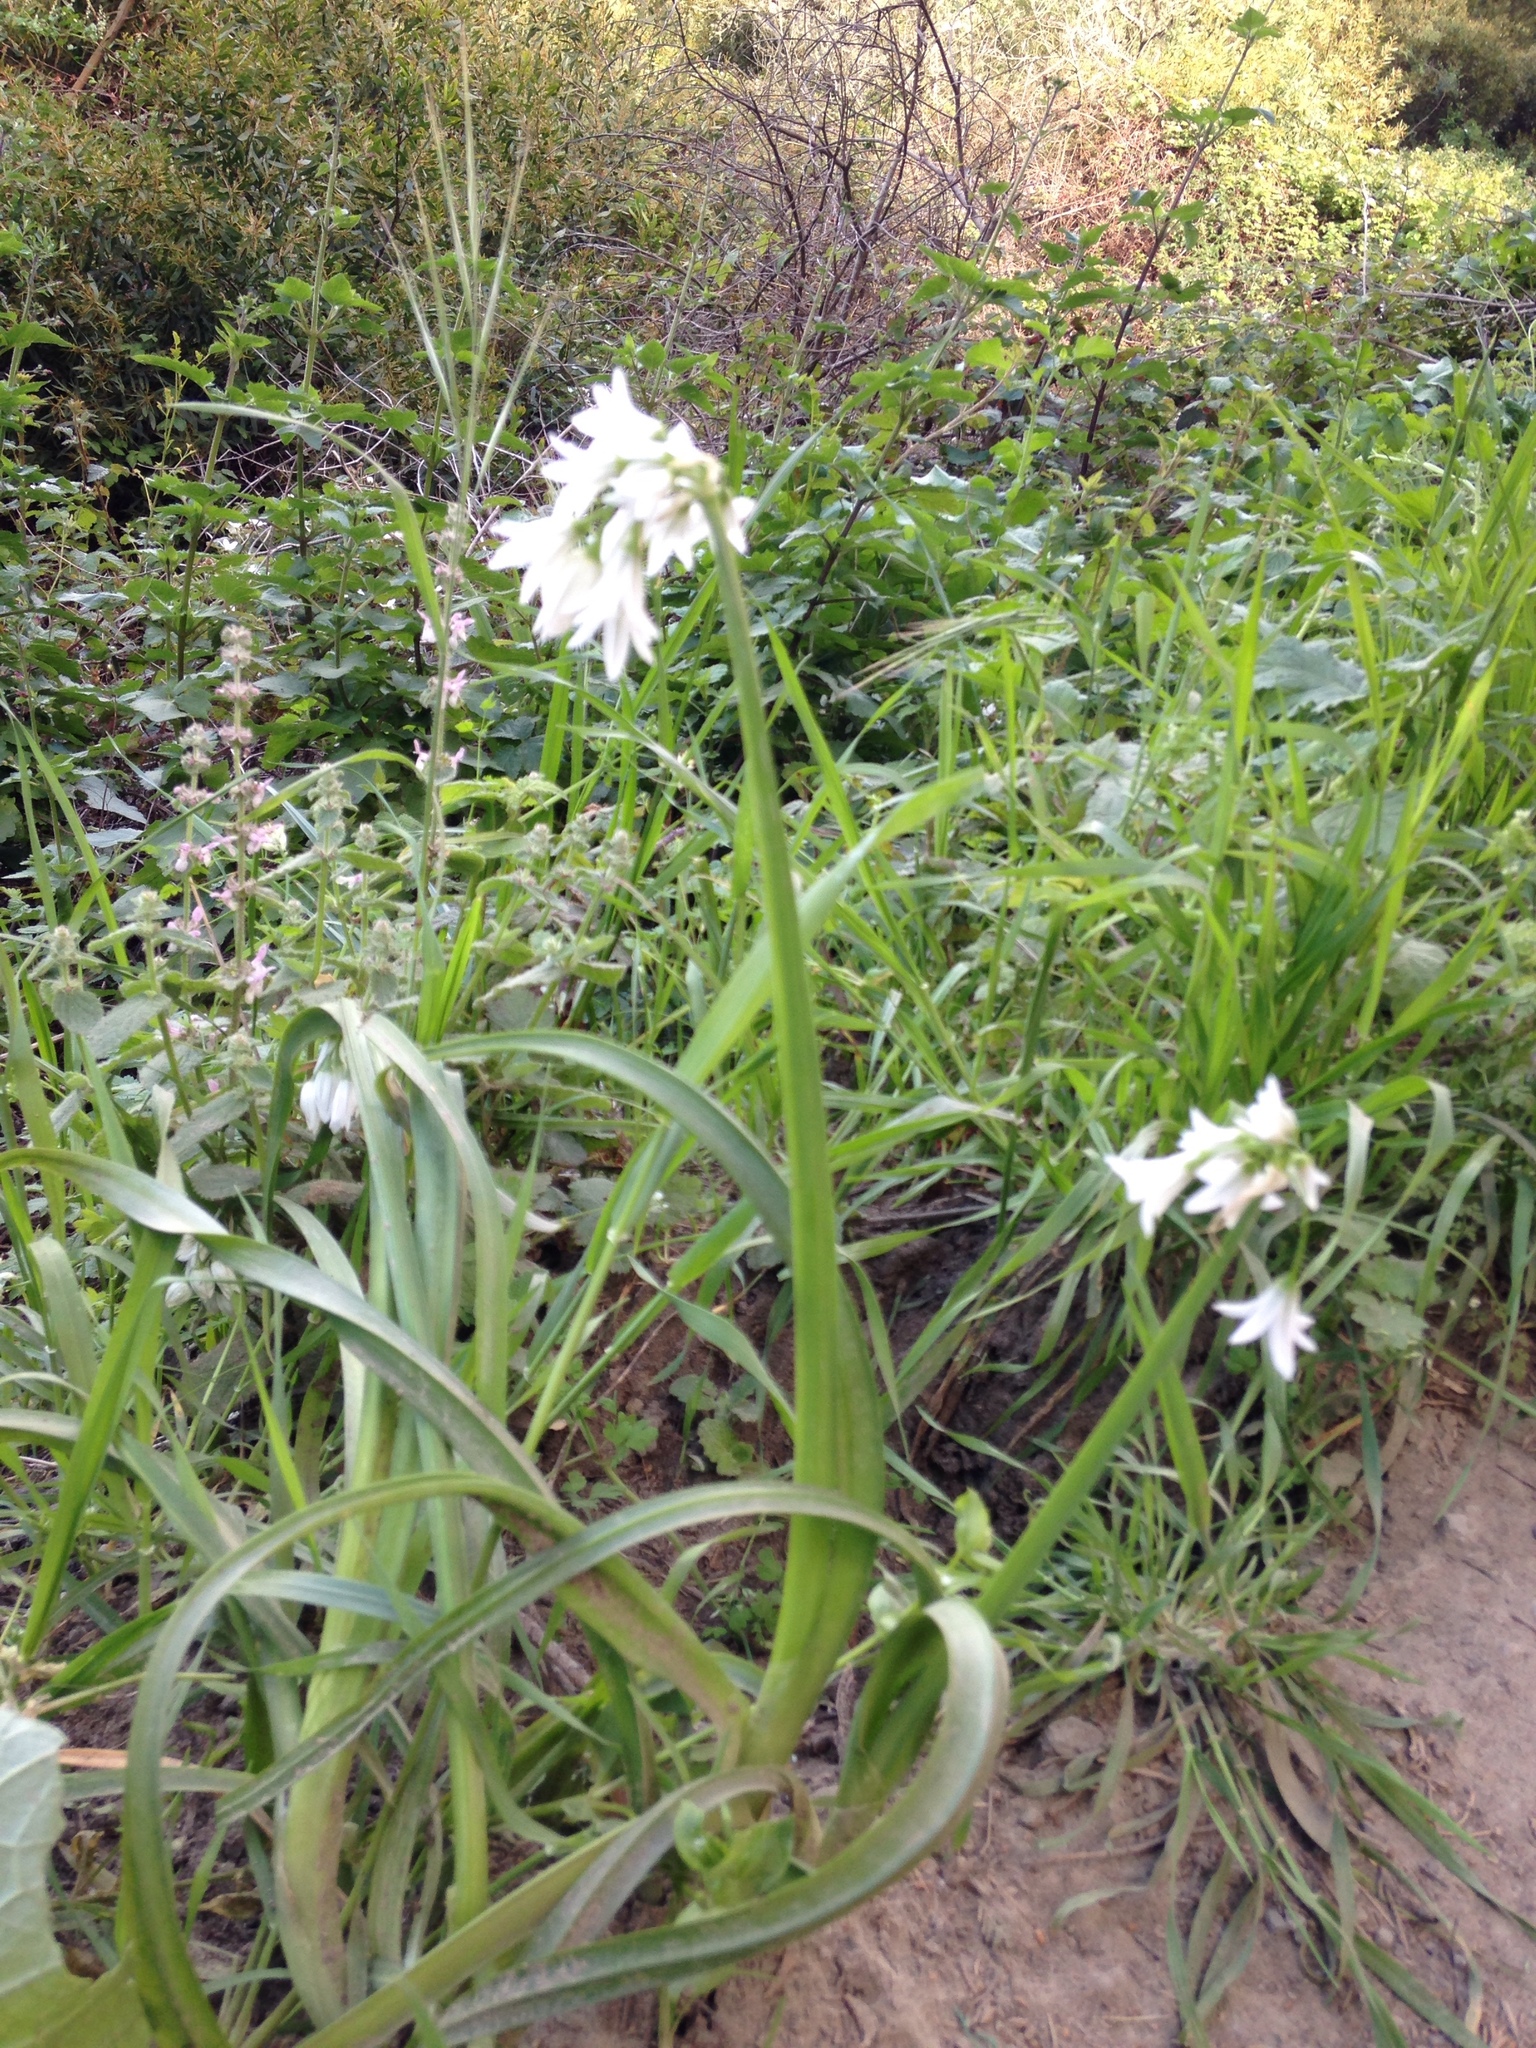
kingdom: Plantae
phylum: Tracheophyta
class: Liliopsida
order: Asparagales
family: Amaryllidaceae
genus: Allium
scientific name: Allium triquetrum
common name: Three-cornered garlic
